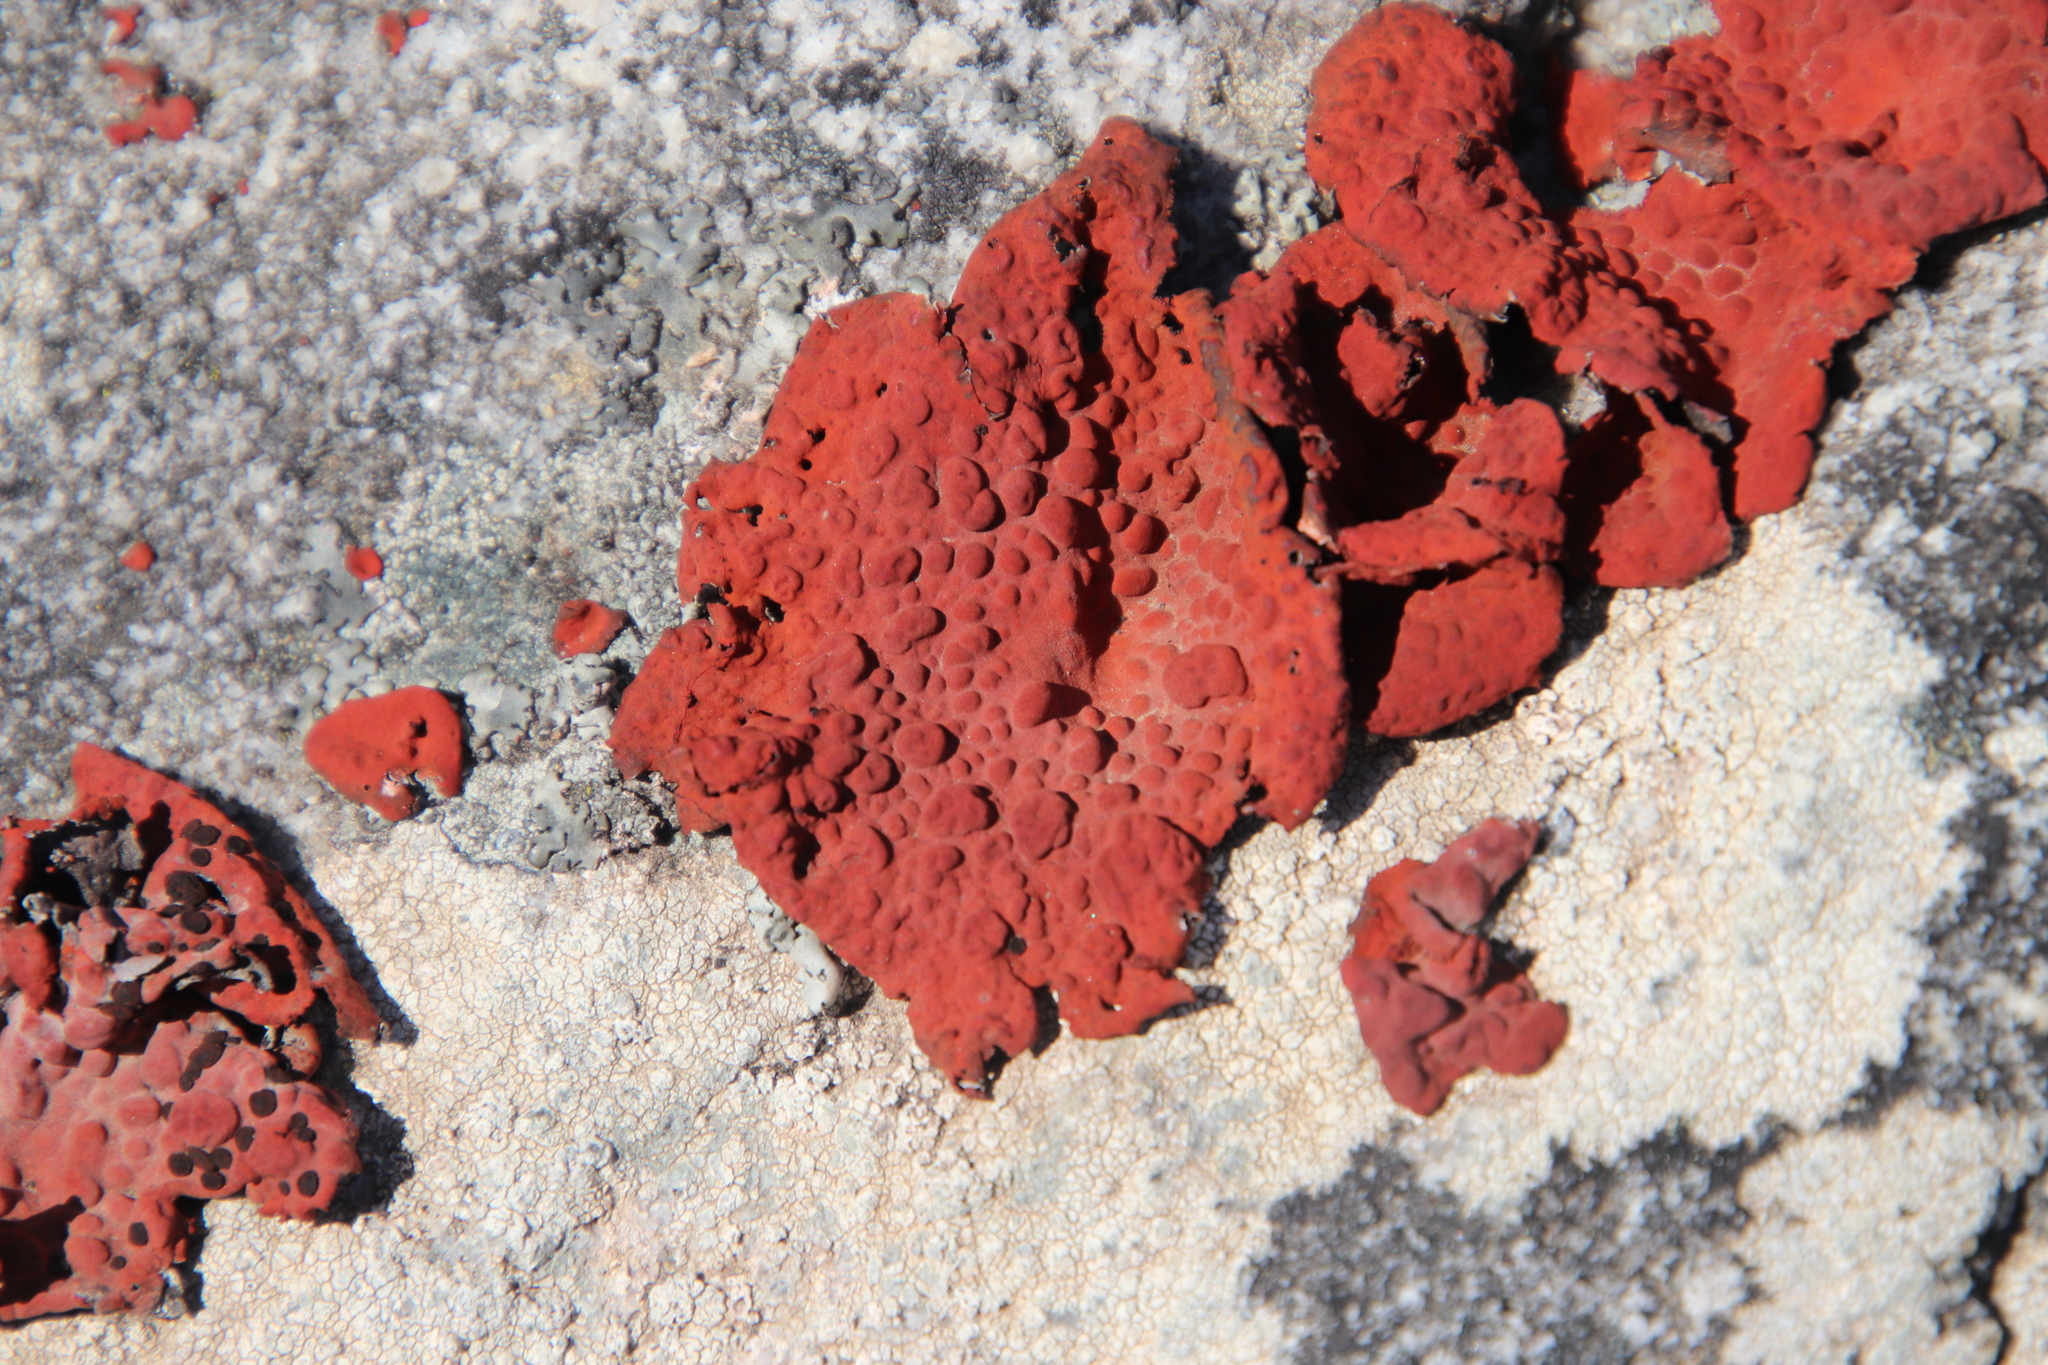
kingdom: Fungi
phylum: Ascomycota
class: Lecanoromycetes
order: Umbilicariales
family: Umbilicariaceae
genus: Lasallia
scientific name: Lasallia rubiginosa
